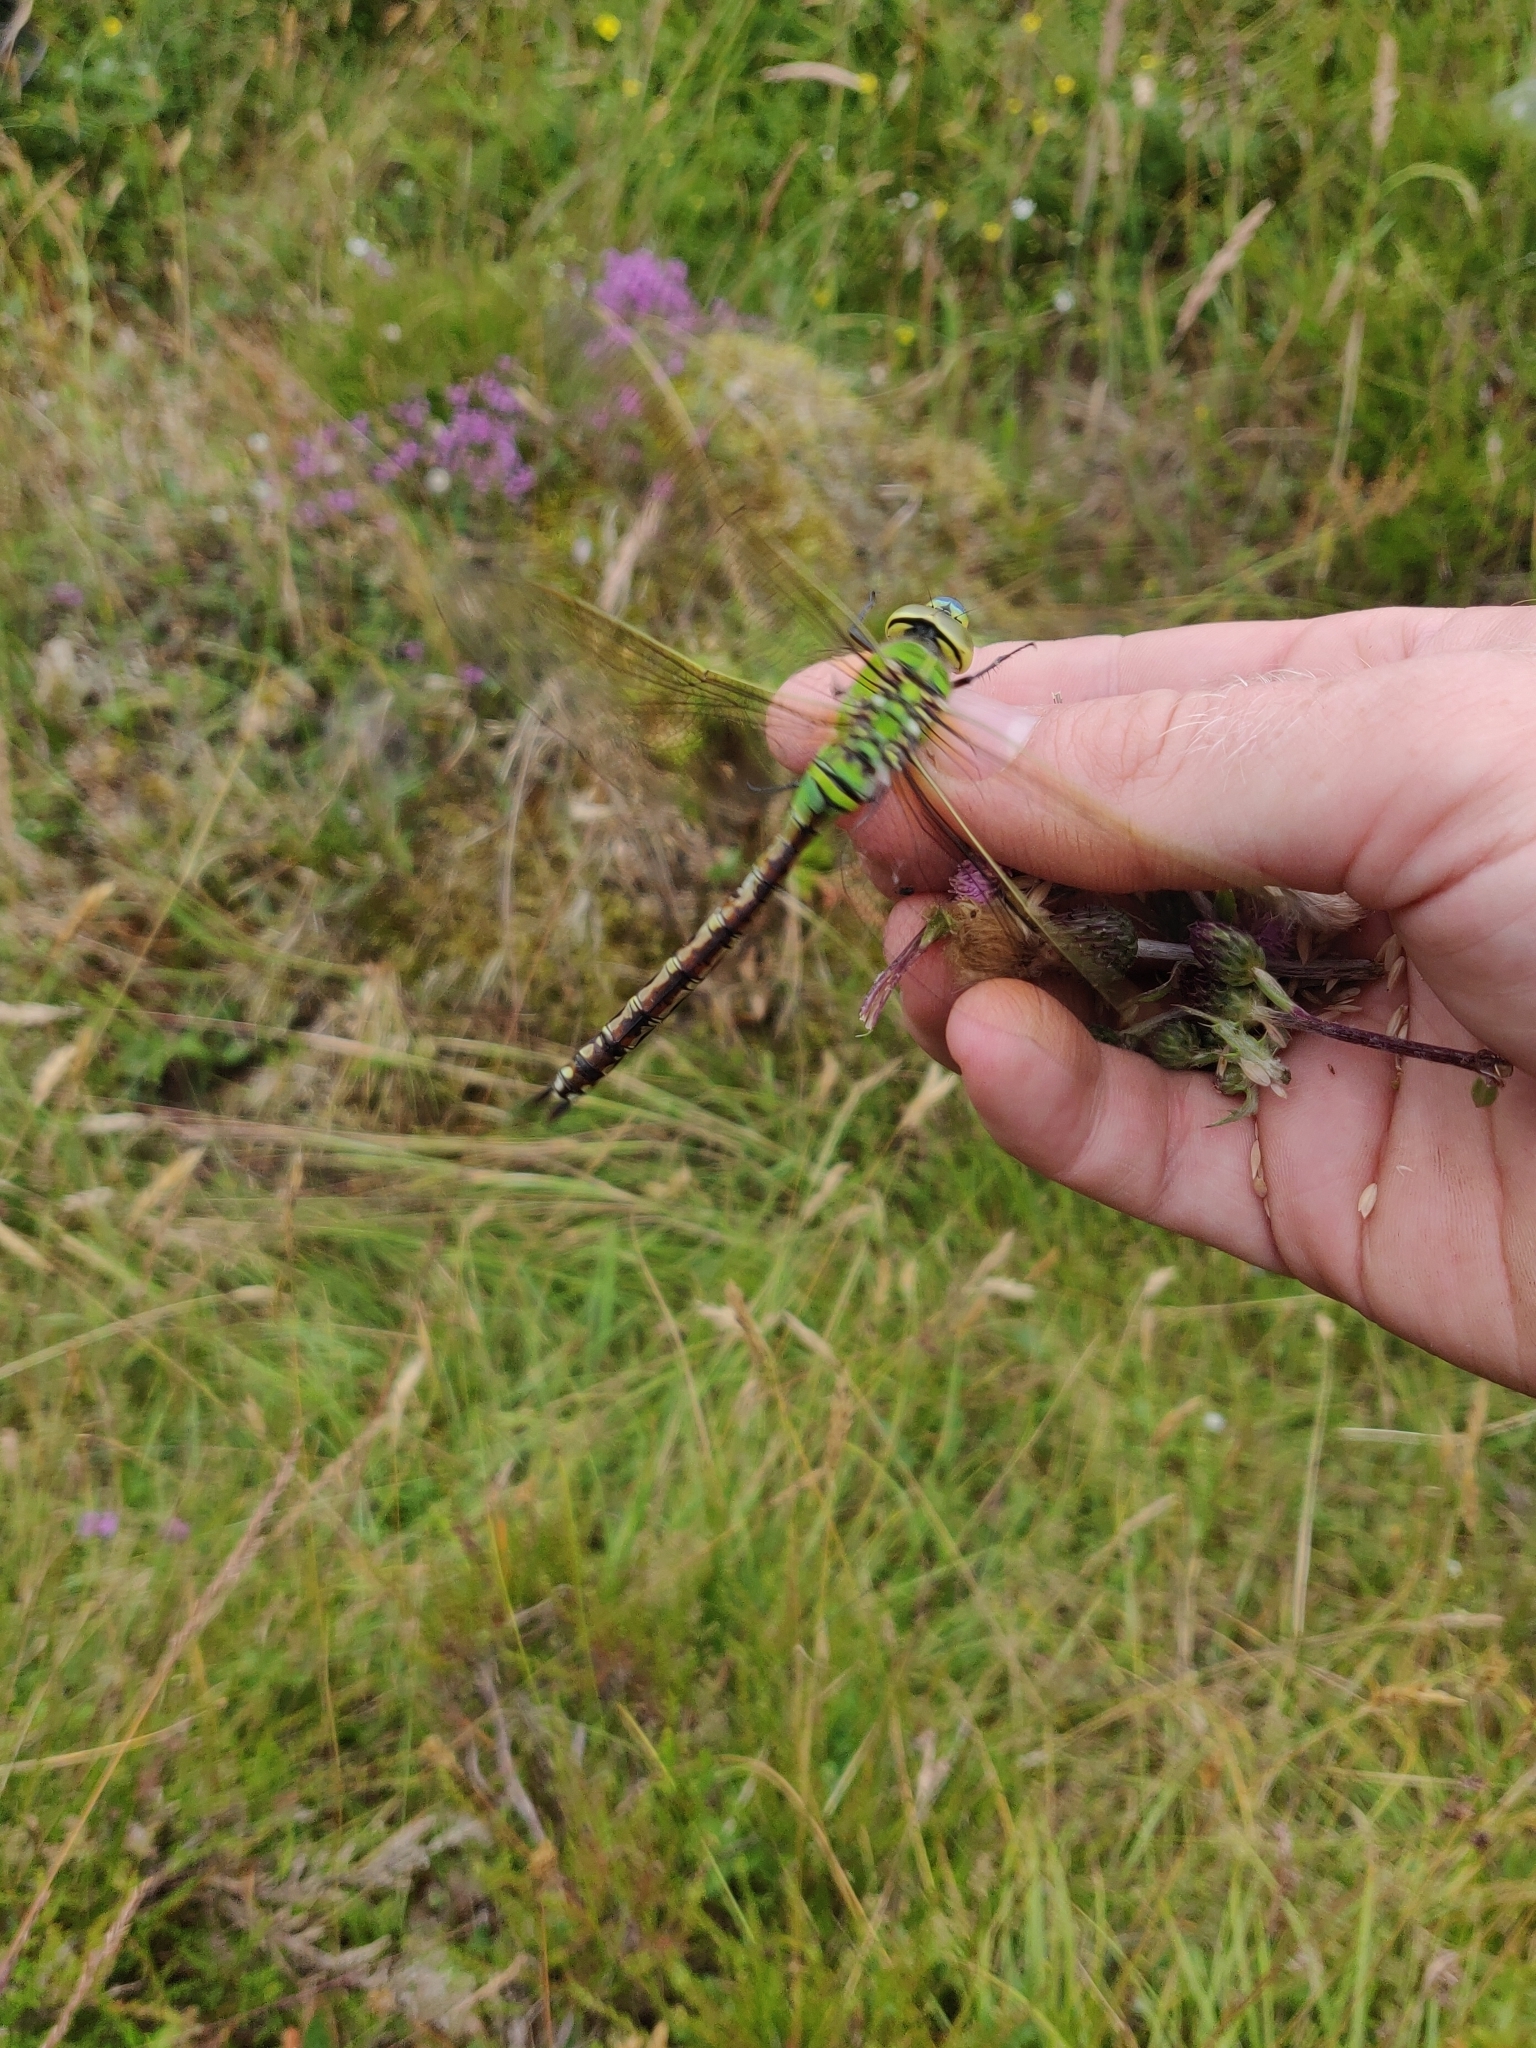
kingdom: Animalia
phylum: Arthropoda
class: Insecta
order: Odonata
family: Aeshnidae
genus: Anax
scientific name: Anax imperator
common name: Emperor dragonfly
